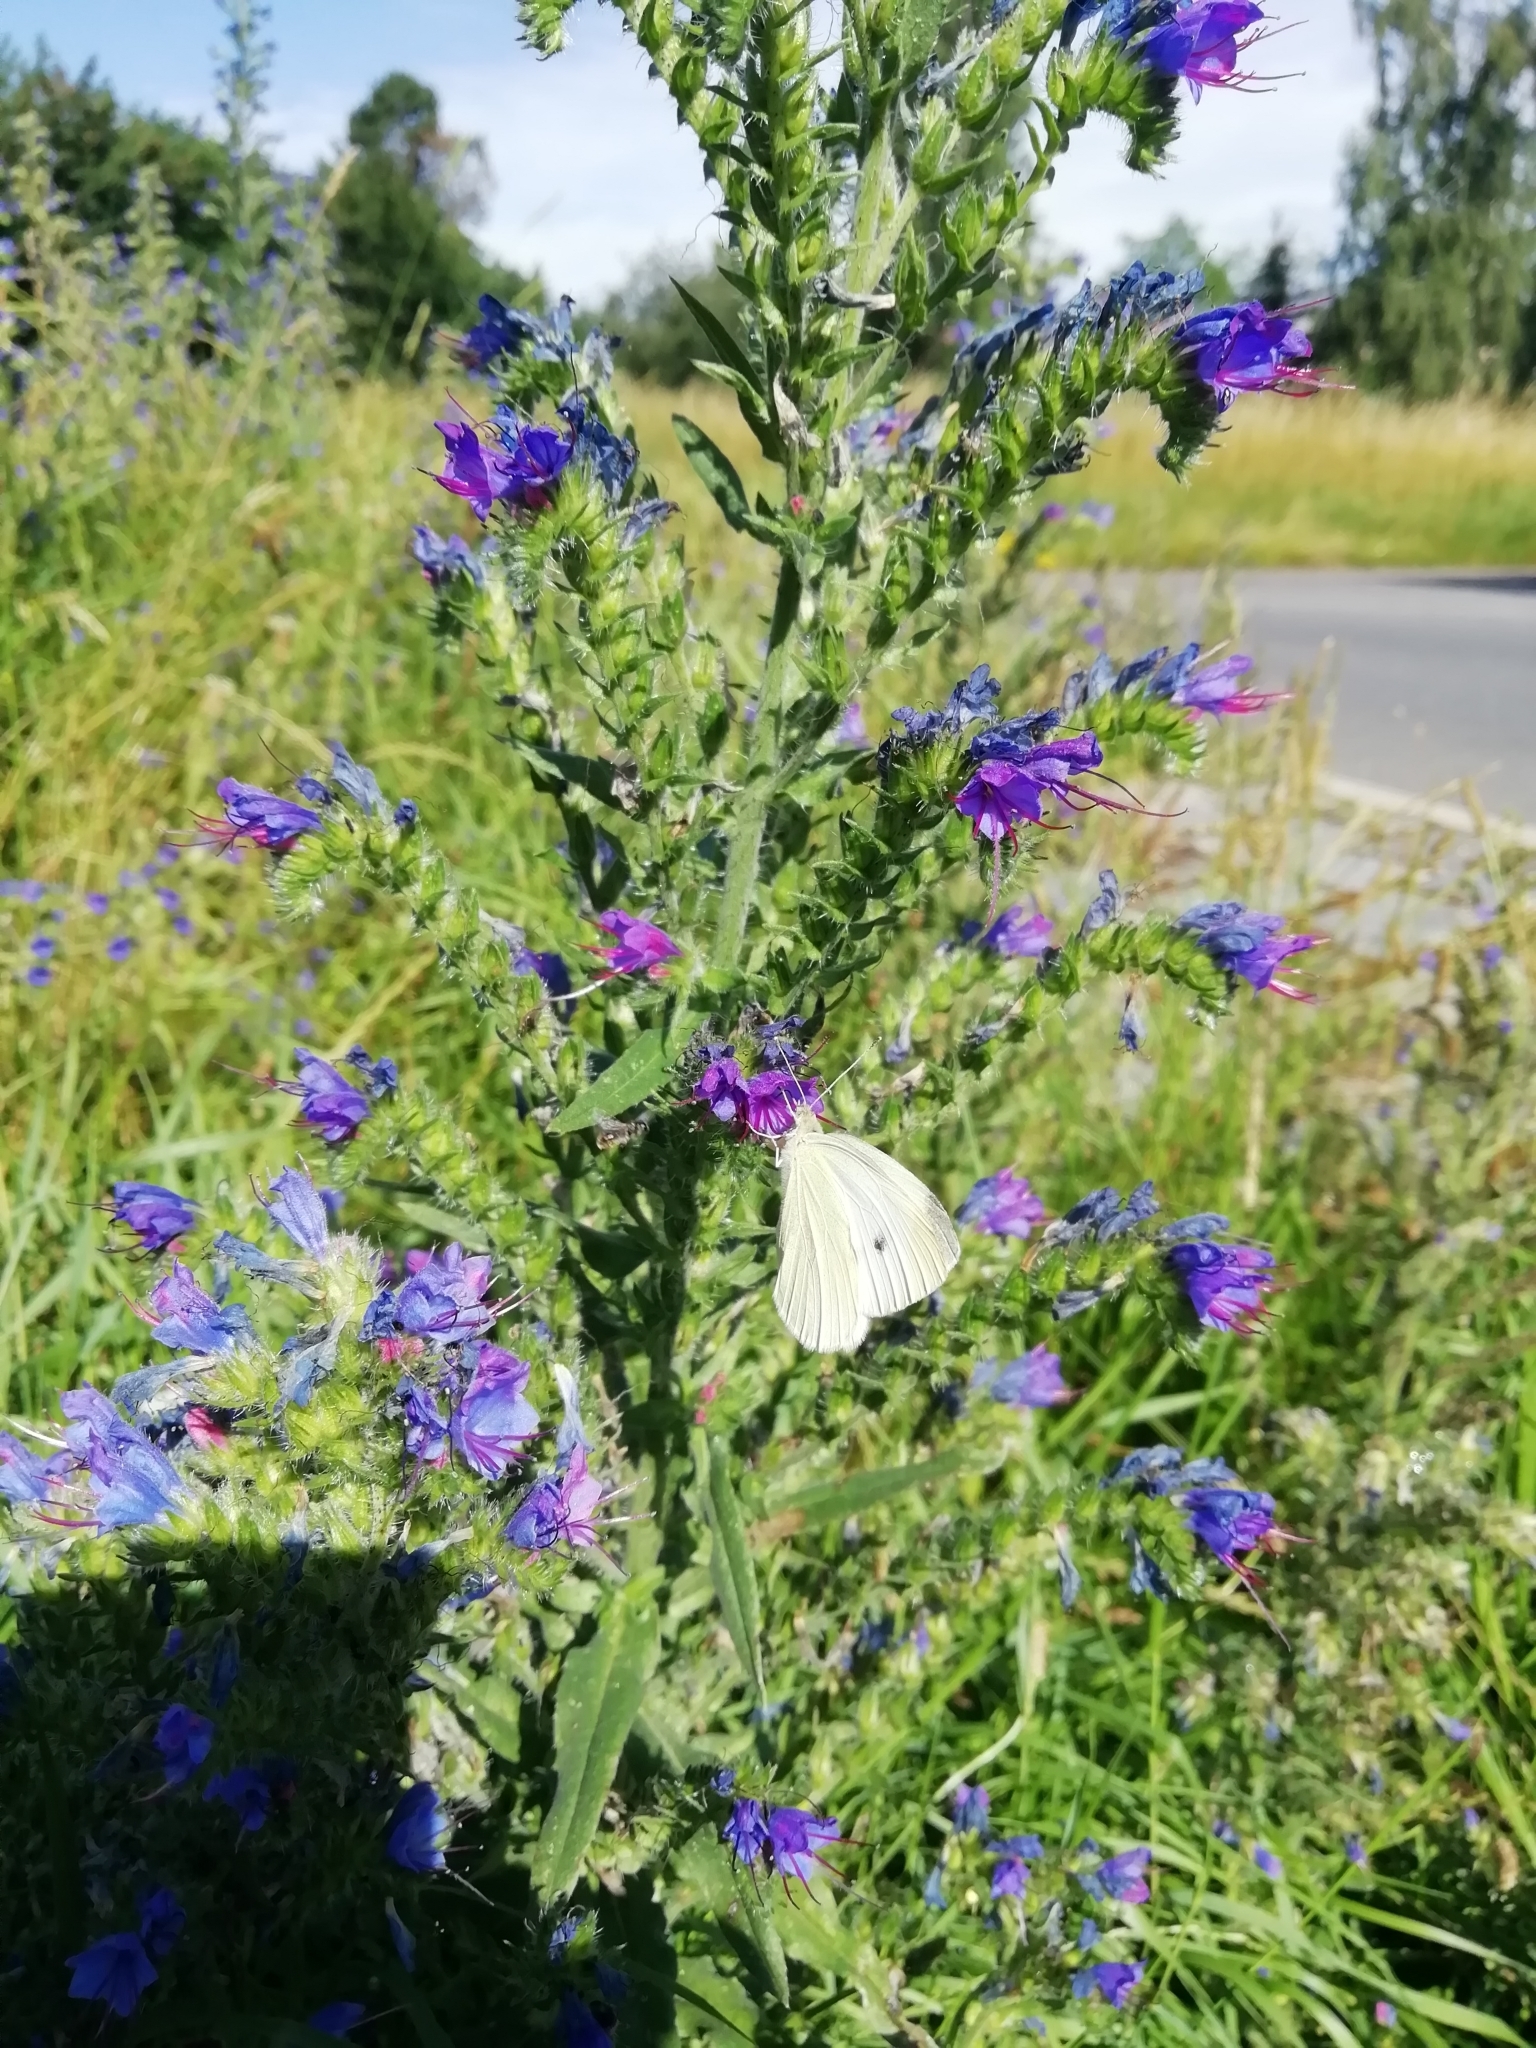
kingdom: Animalia
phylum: Arthropoda
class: Insecta
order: Lepidoptera
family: Pieridae
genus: Pieris
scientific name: Pieris rapae
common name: Small white
